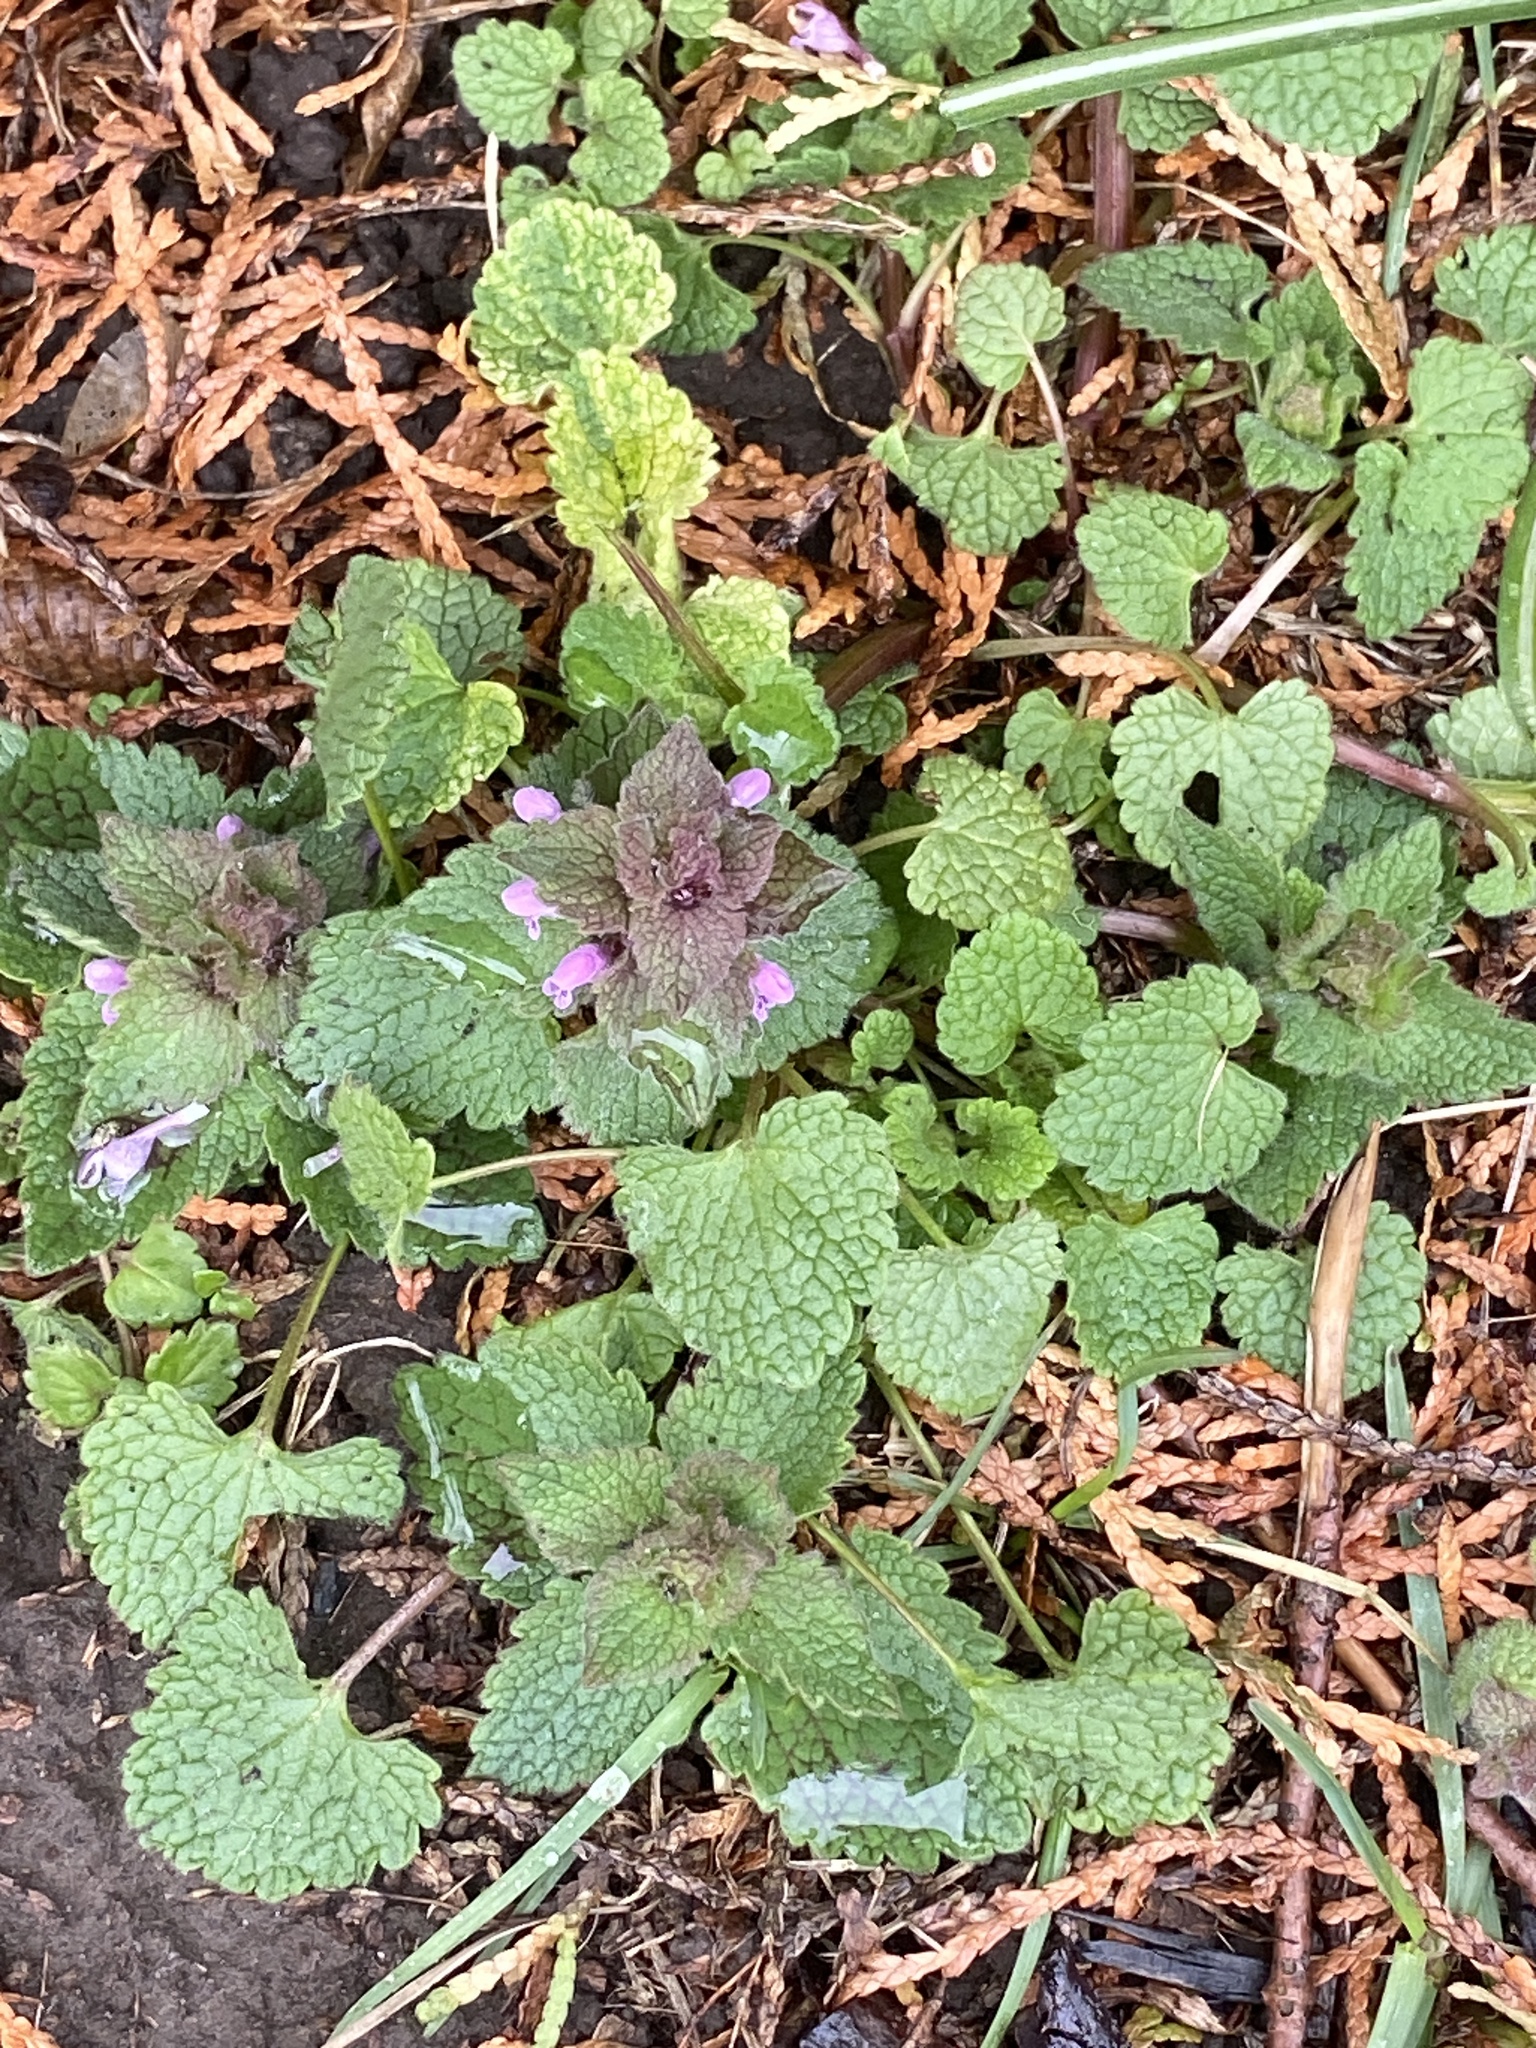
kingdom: Plantae
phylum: Tracheophyta
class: Magnoliopsida
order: Lamiales
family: Lamiaceae
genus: Lamium
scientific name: Lamium purpureum
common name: Red dead-nettle
